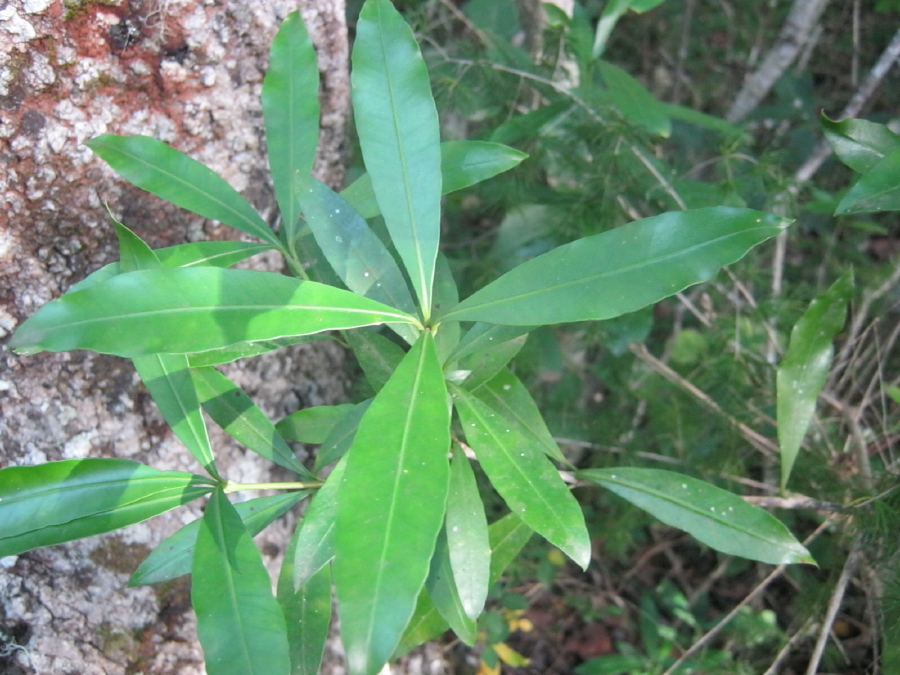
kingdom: Plantae
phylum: Tracheophyta
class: Magnoliopsida
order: Gentianales
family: Apocynaceae
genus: Gonioma
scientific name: Gonioma kamassi
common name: Kamassi
